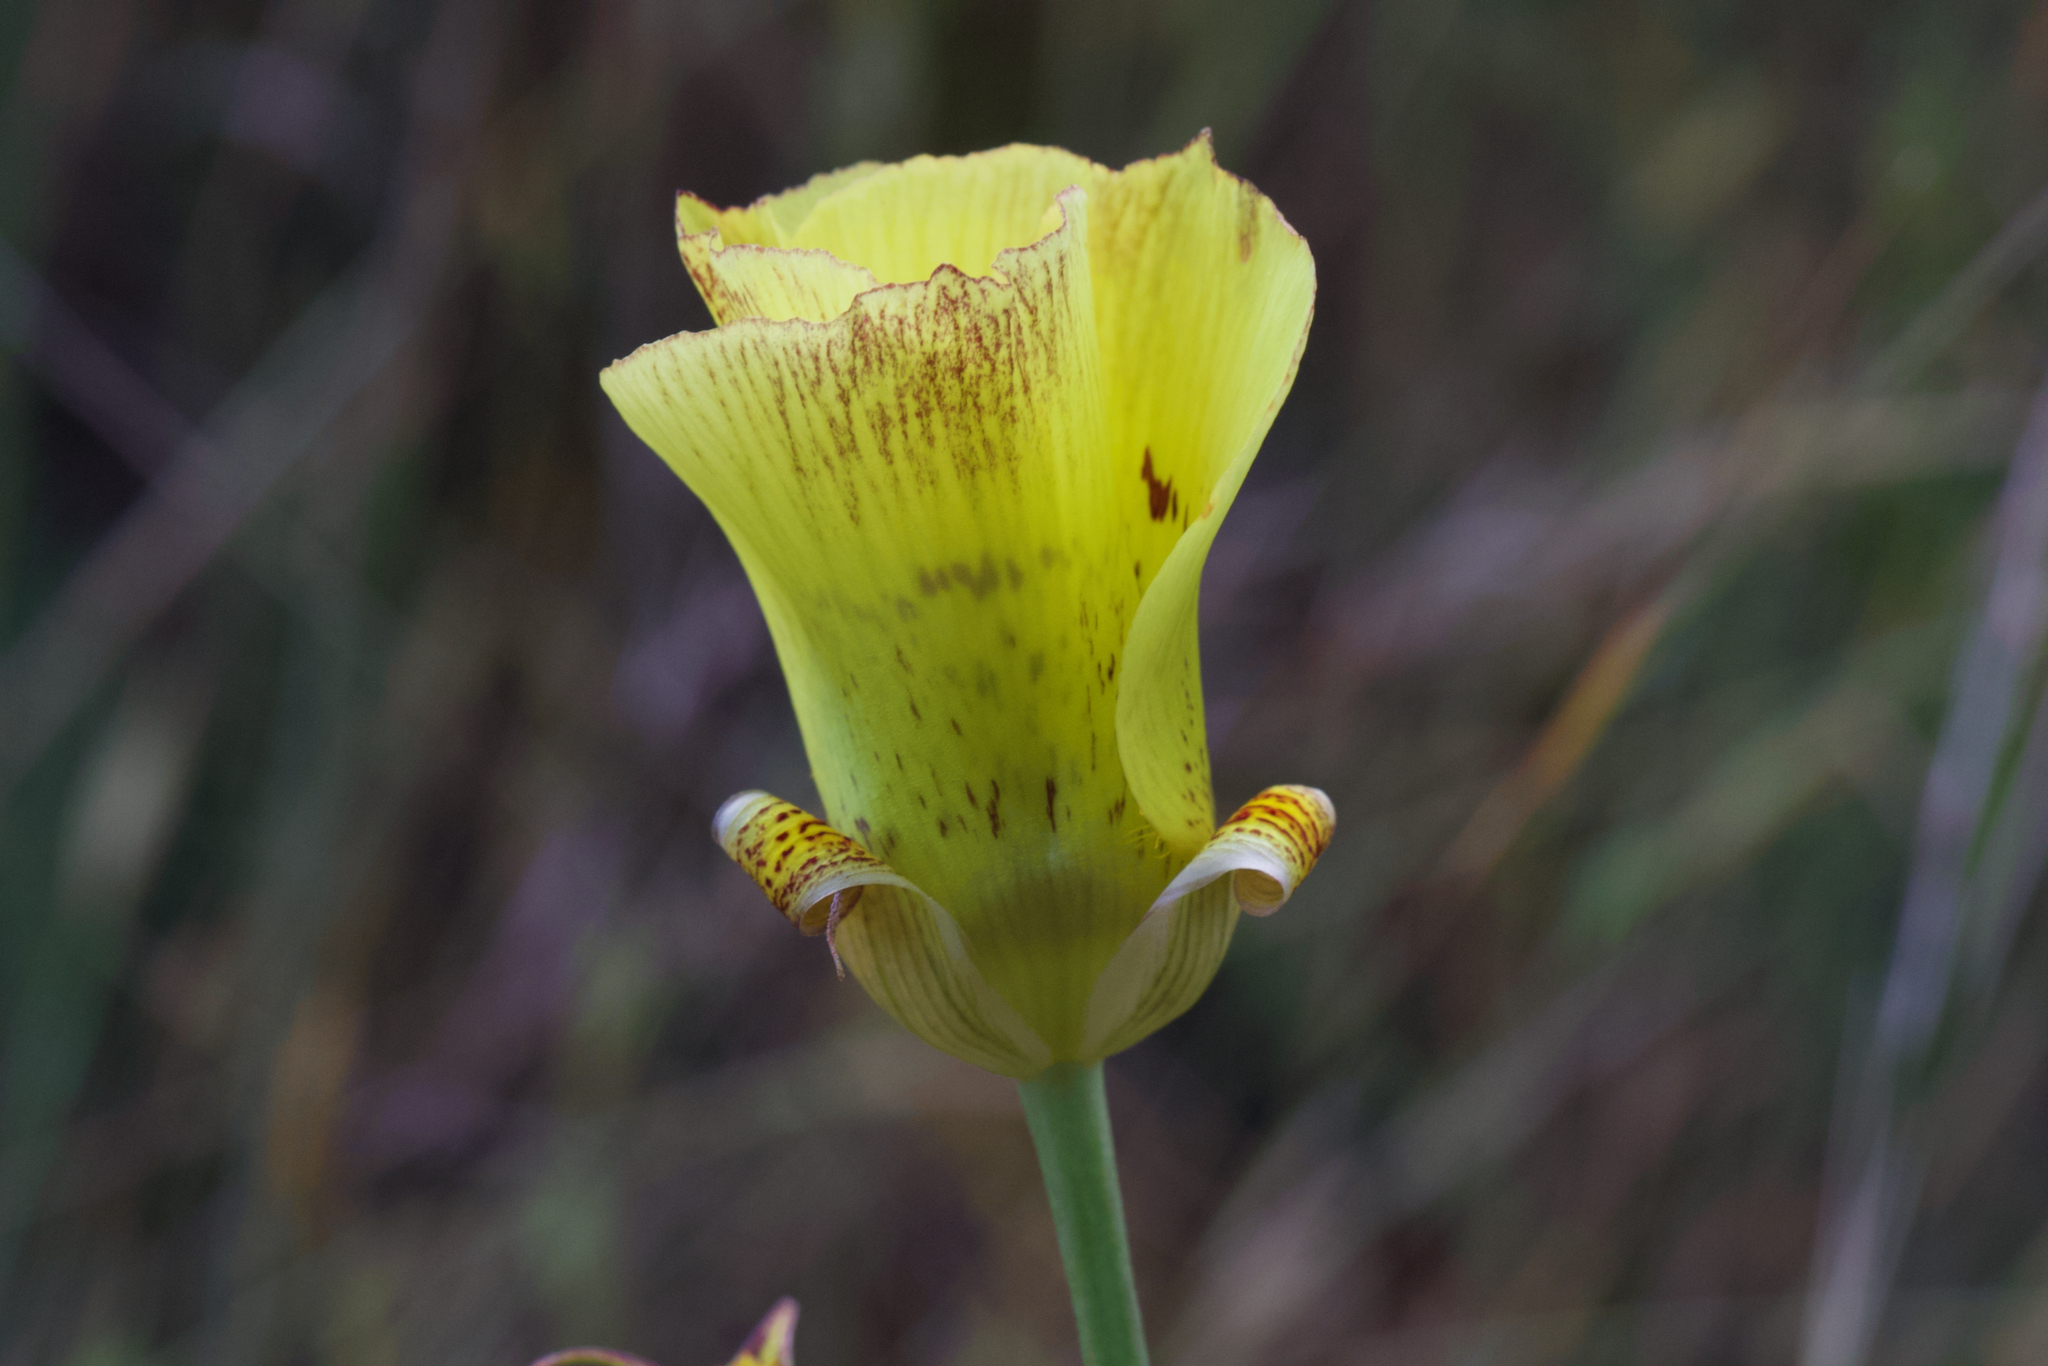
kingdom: Plantae
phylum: Tracheophyta
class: Liliopsida
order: Liliales
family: Liliaceae
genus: Calochortus
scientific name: Calochortus luteus
